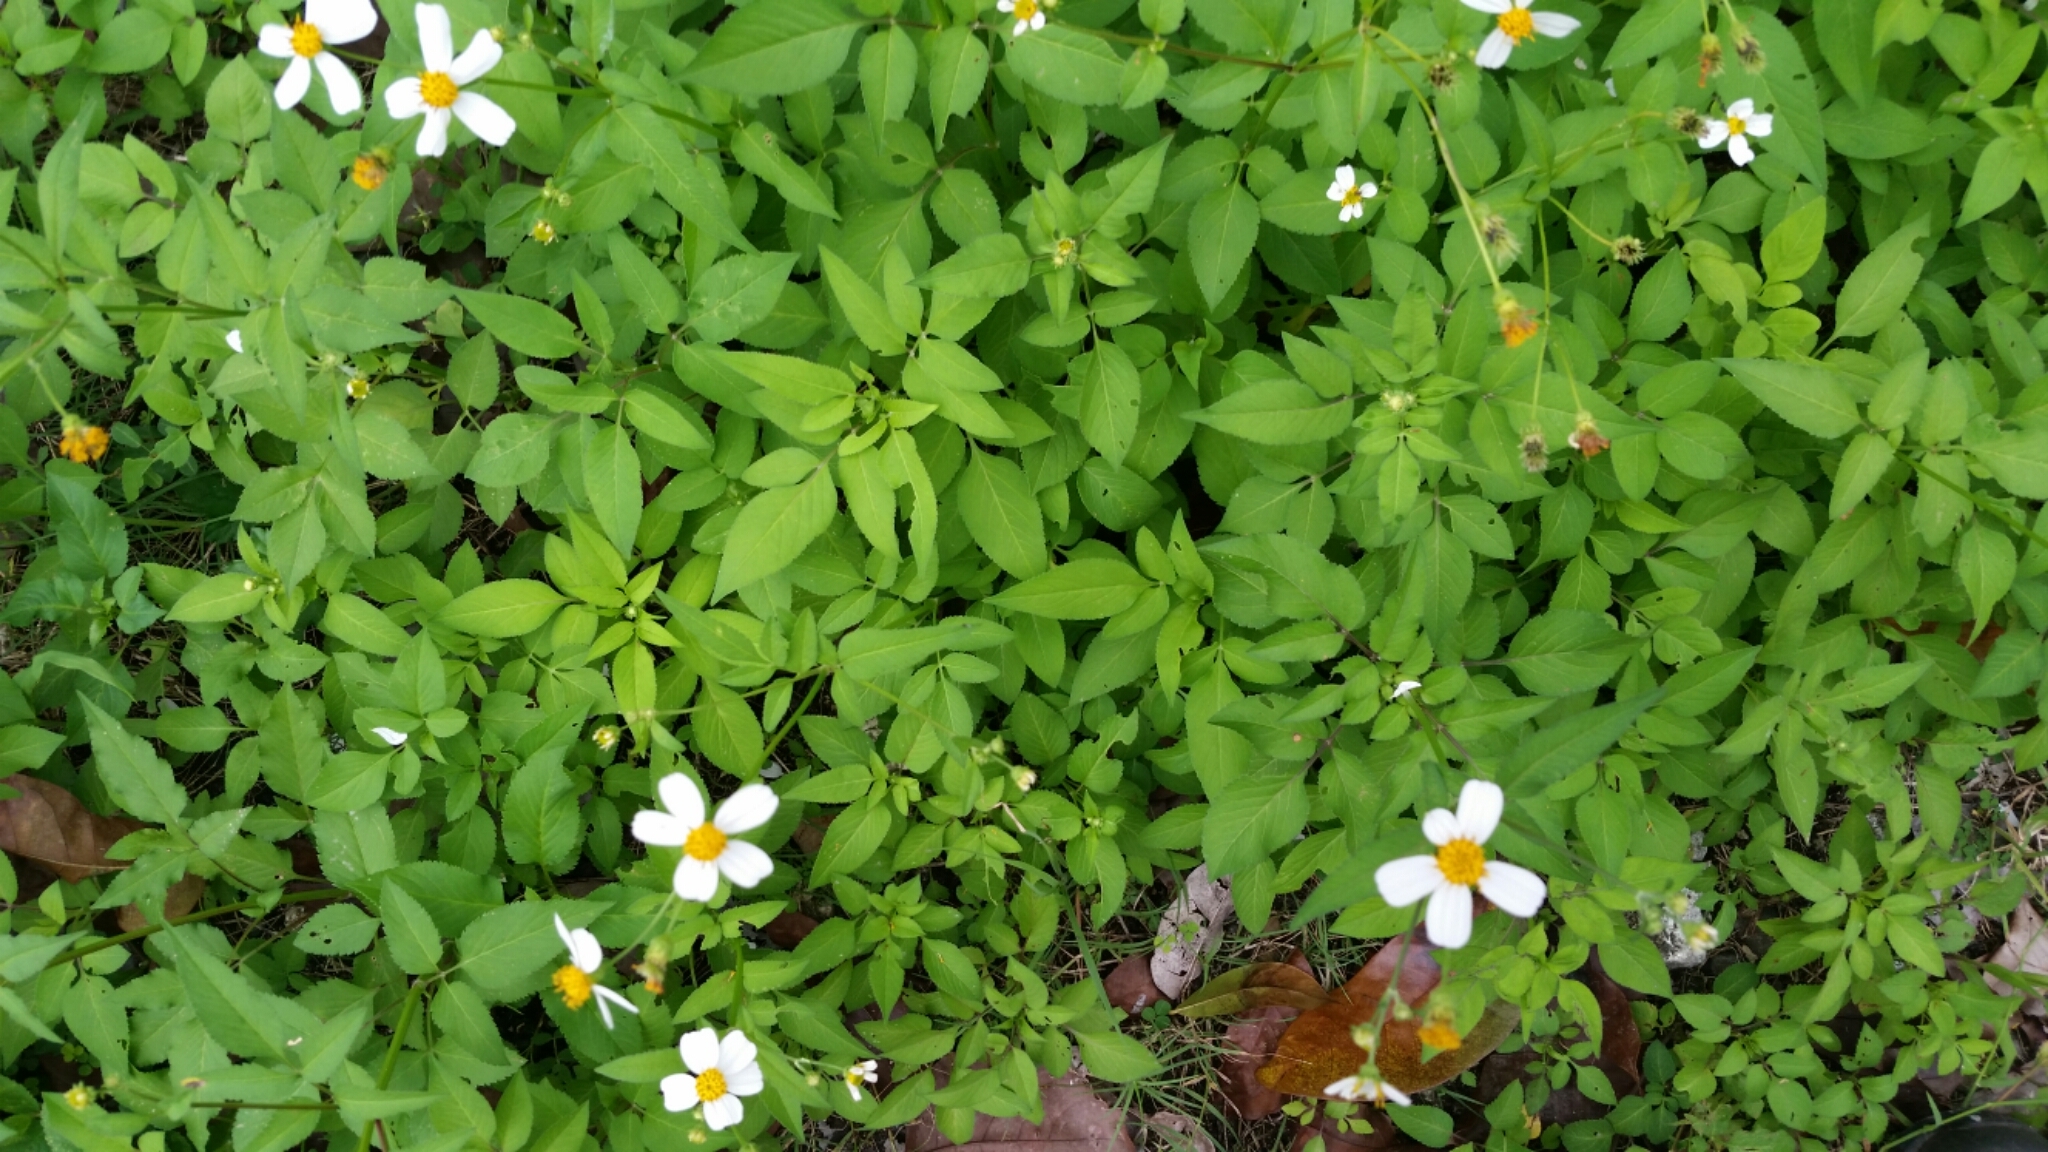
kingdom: Plantae
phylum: Tracheophyta
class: Magnoliopsida
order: Asterales
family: Asteraceae
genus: Bidens
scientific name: Bidens alba
